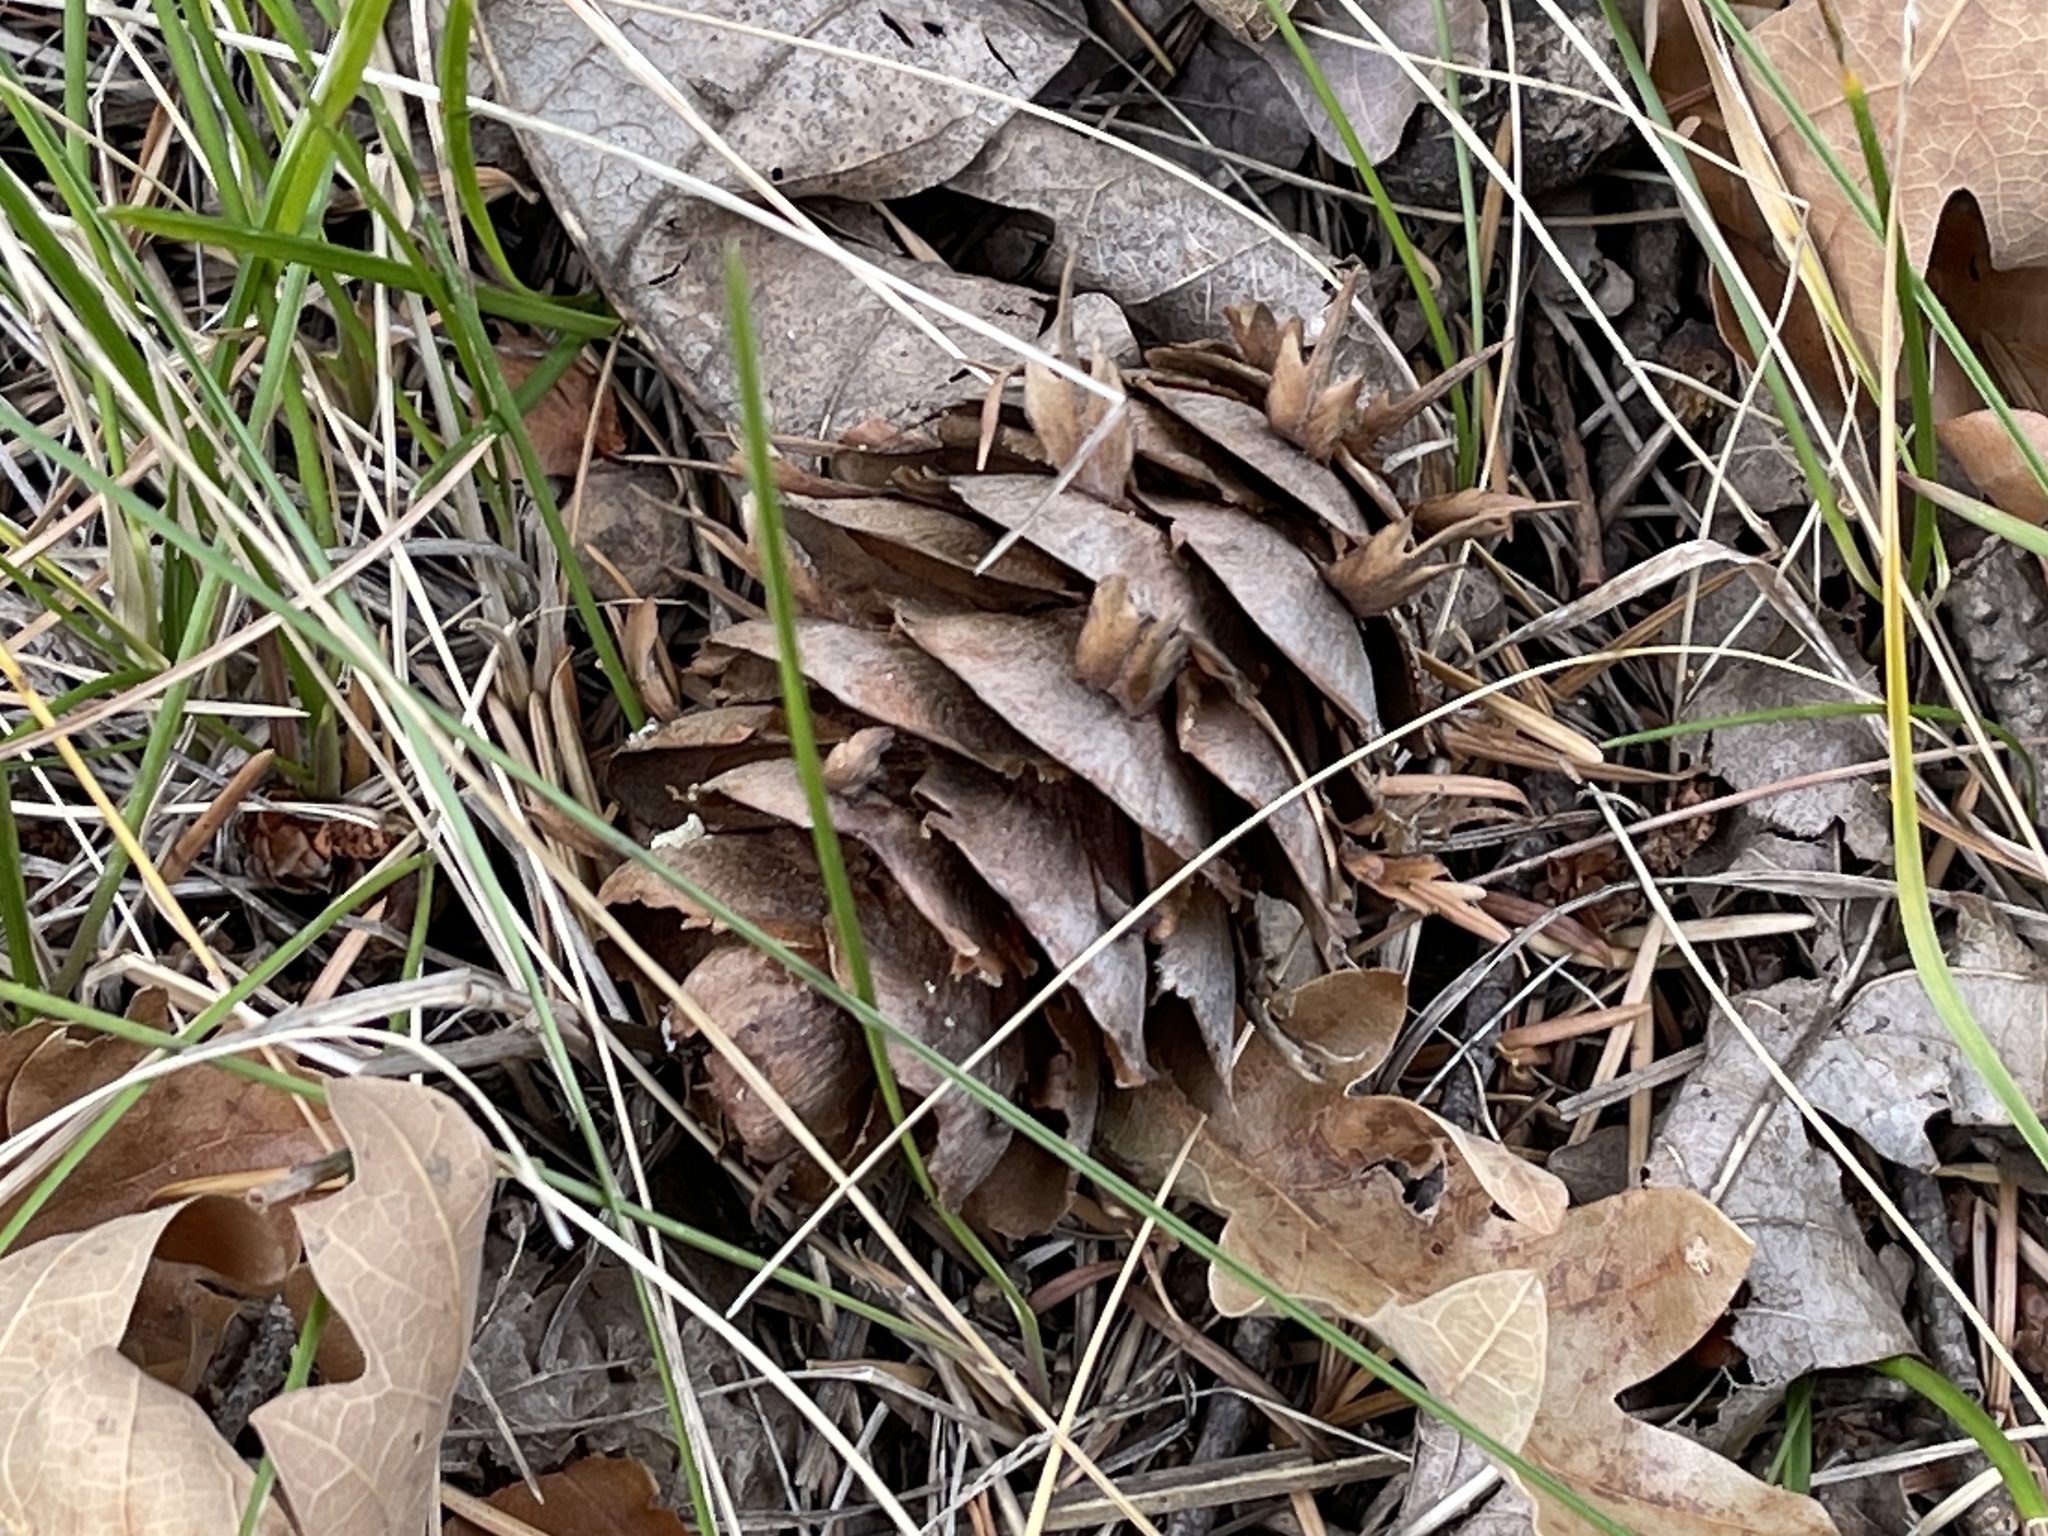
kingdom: Plantae
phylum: Tracheophyta
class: Pinopsida
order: Pinales
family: Pinaceae
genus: Pseudotsuga
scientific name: Pseudotsuga menziesii
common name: Douglas fir
